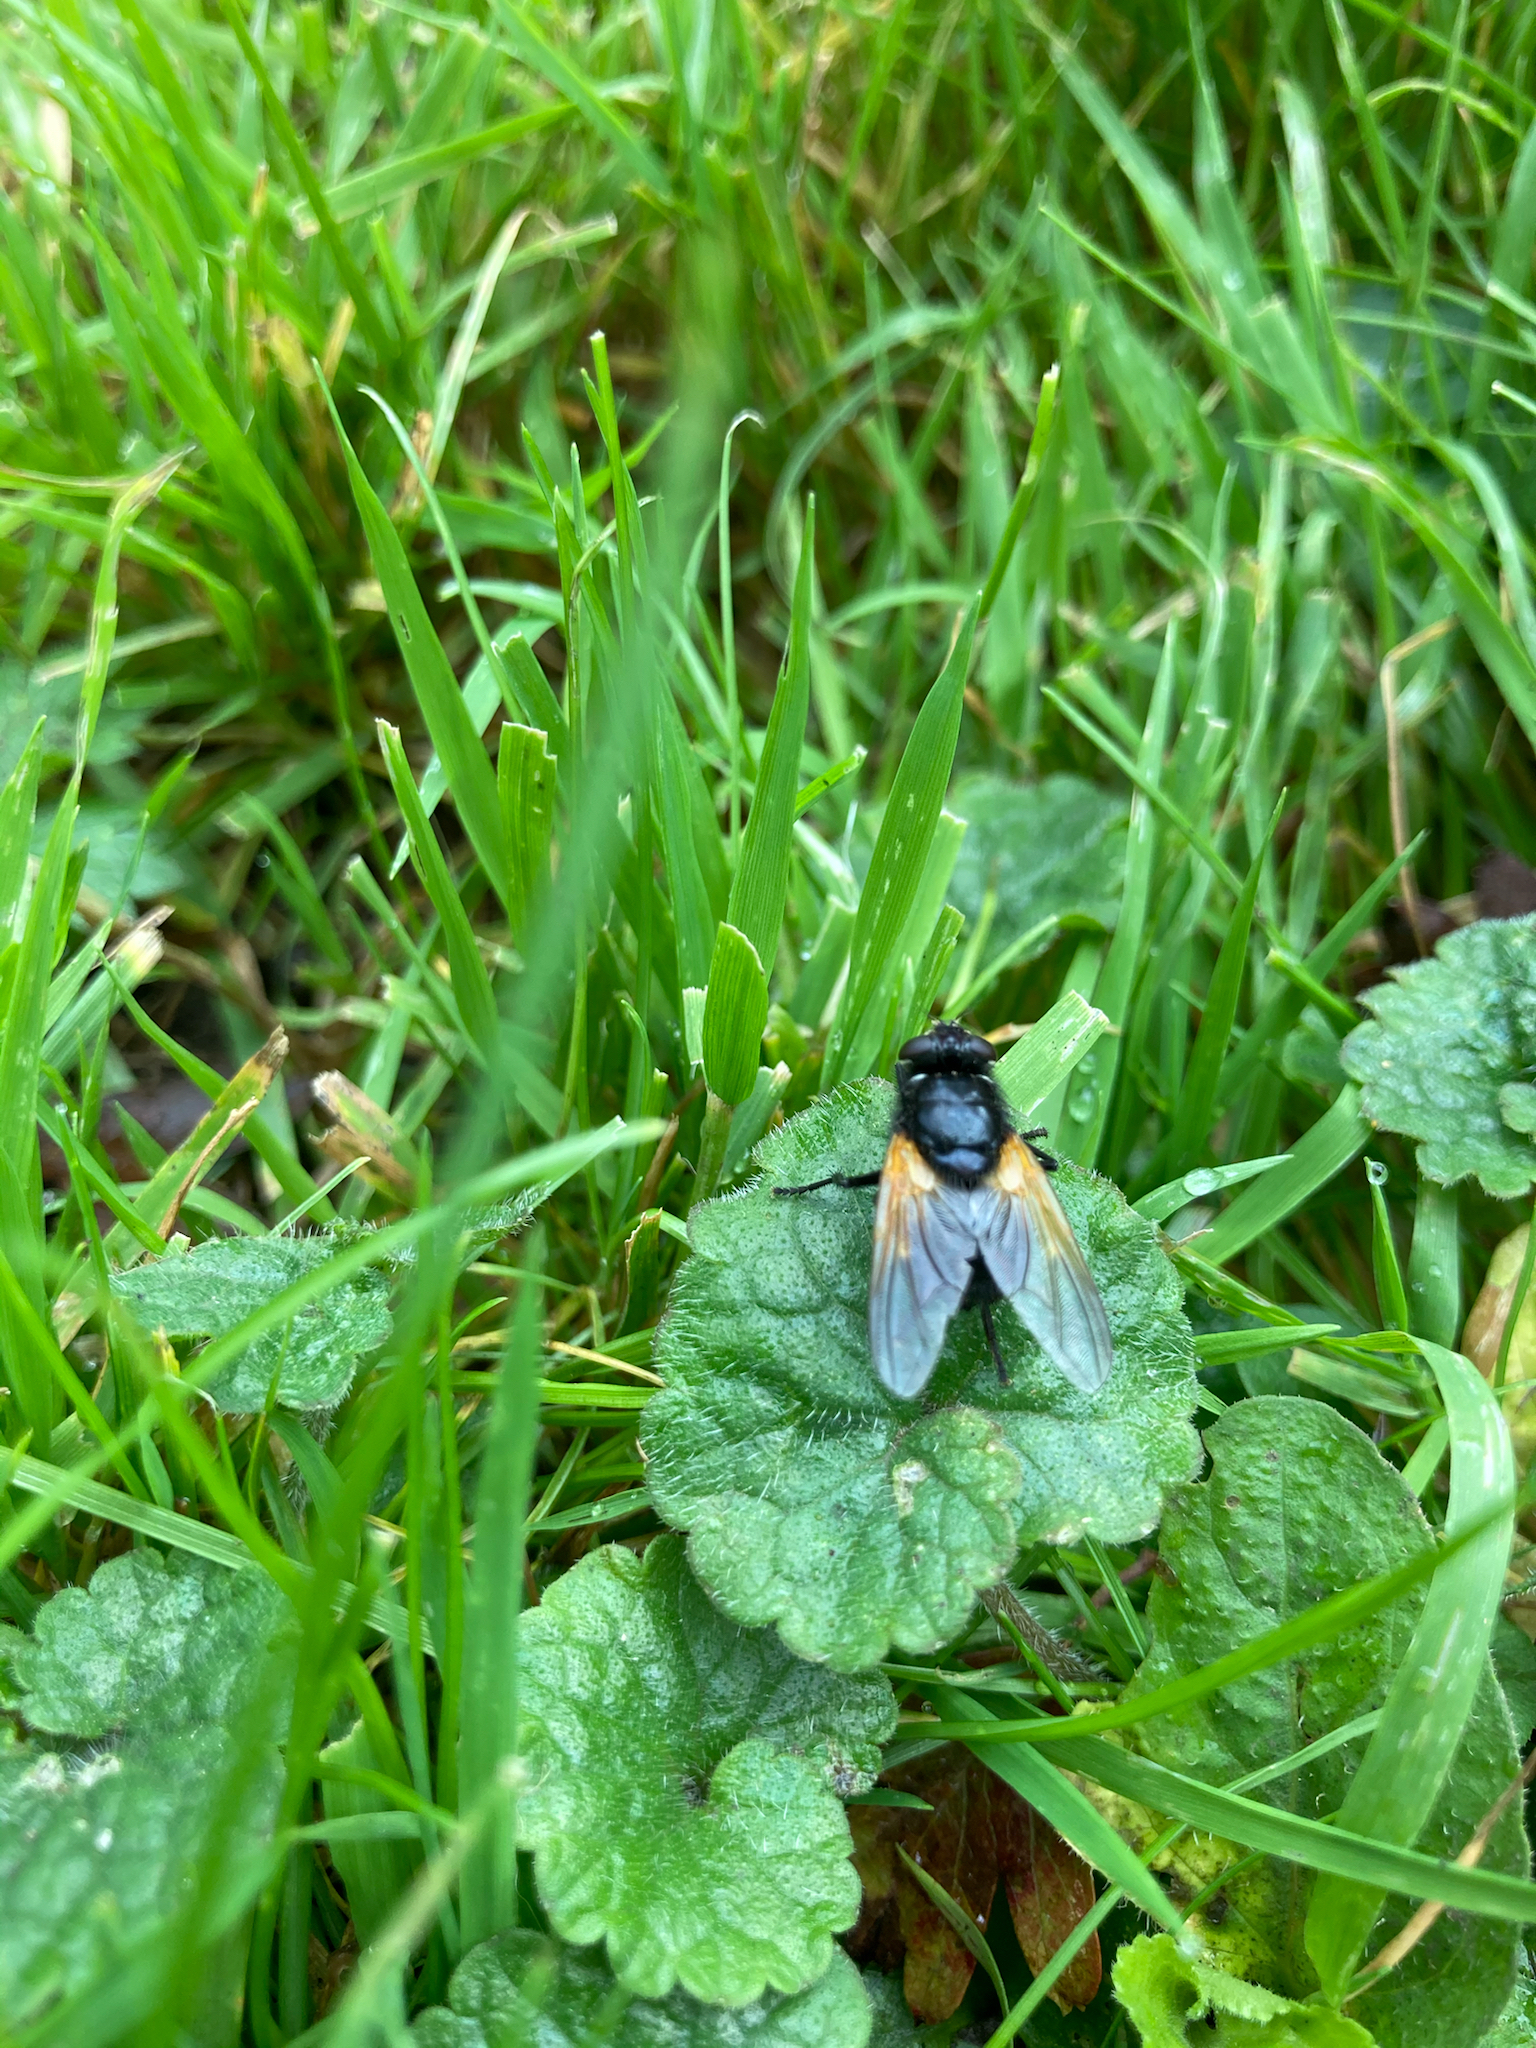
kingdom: Animalia
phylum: Arthropoda
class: Insecta
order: Diptera
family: Muscidae
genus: Mesembrina
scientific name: Mesembrina meridiana
